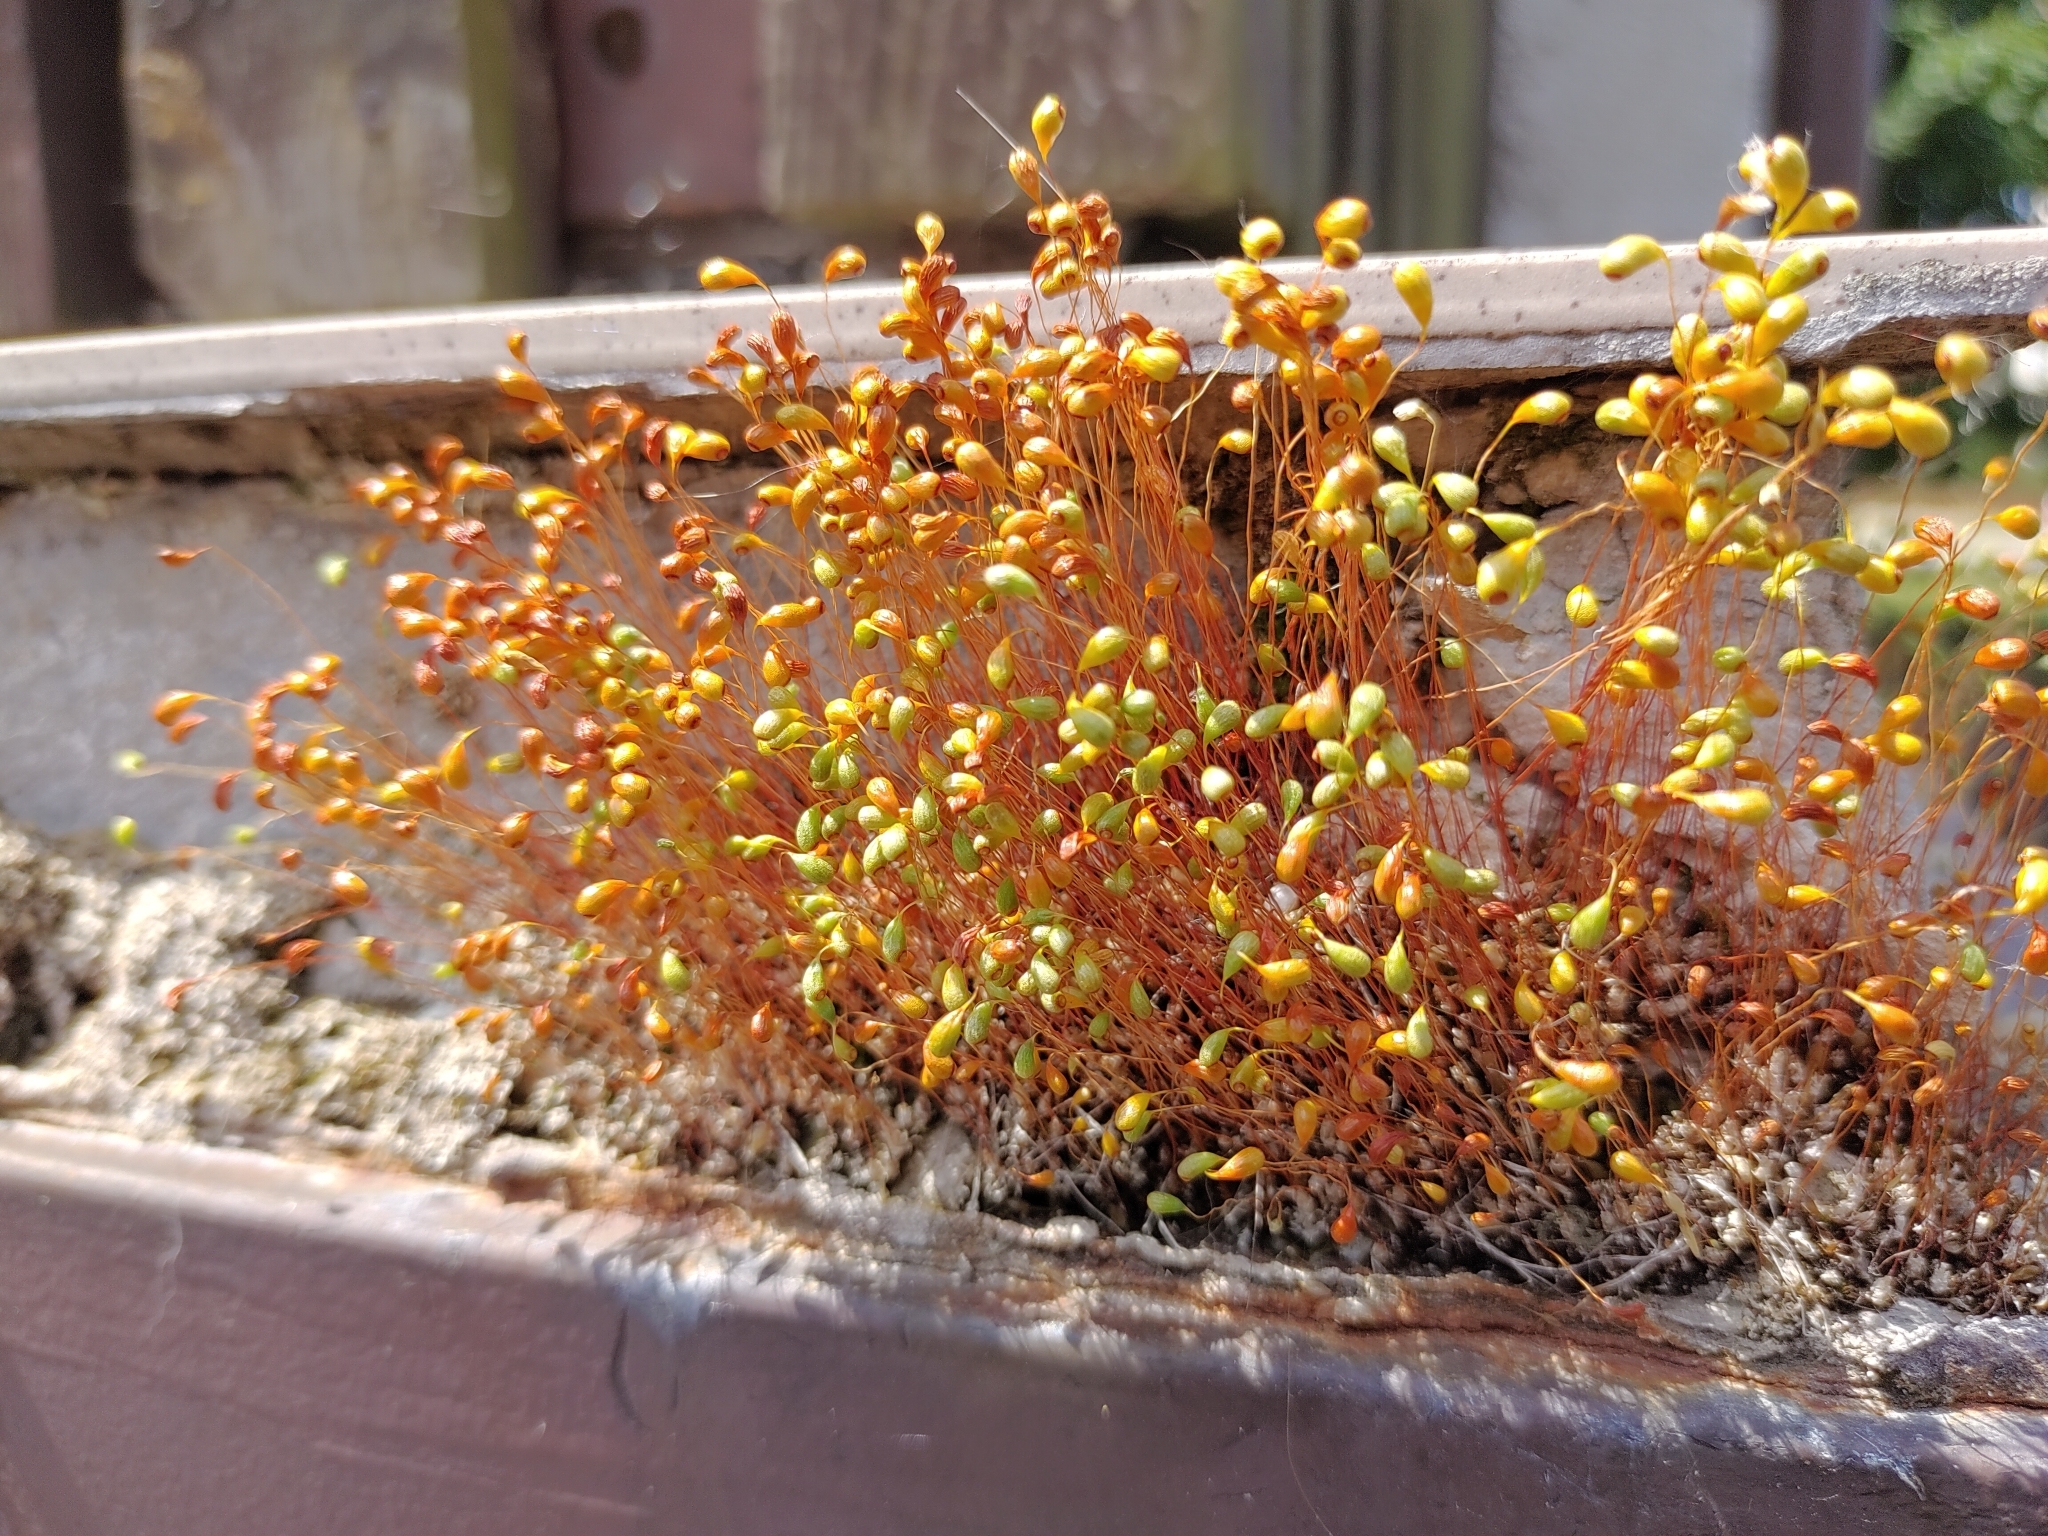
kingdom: Plantae
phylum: Bryophyta
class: Bryopsida
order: Funariales
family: Funariaceae
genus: Funaria
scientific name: Funaria hygrometrica
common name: Common cord moss
